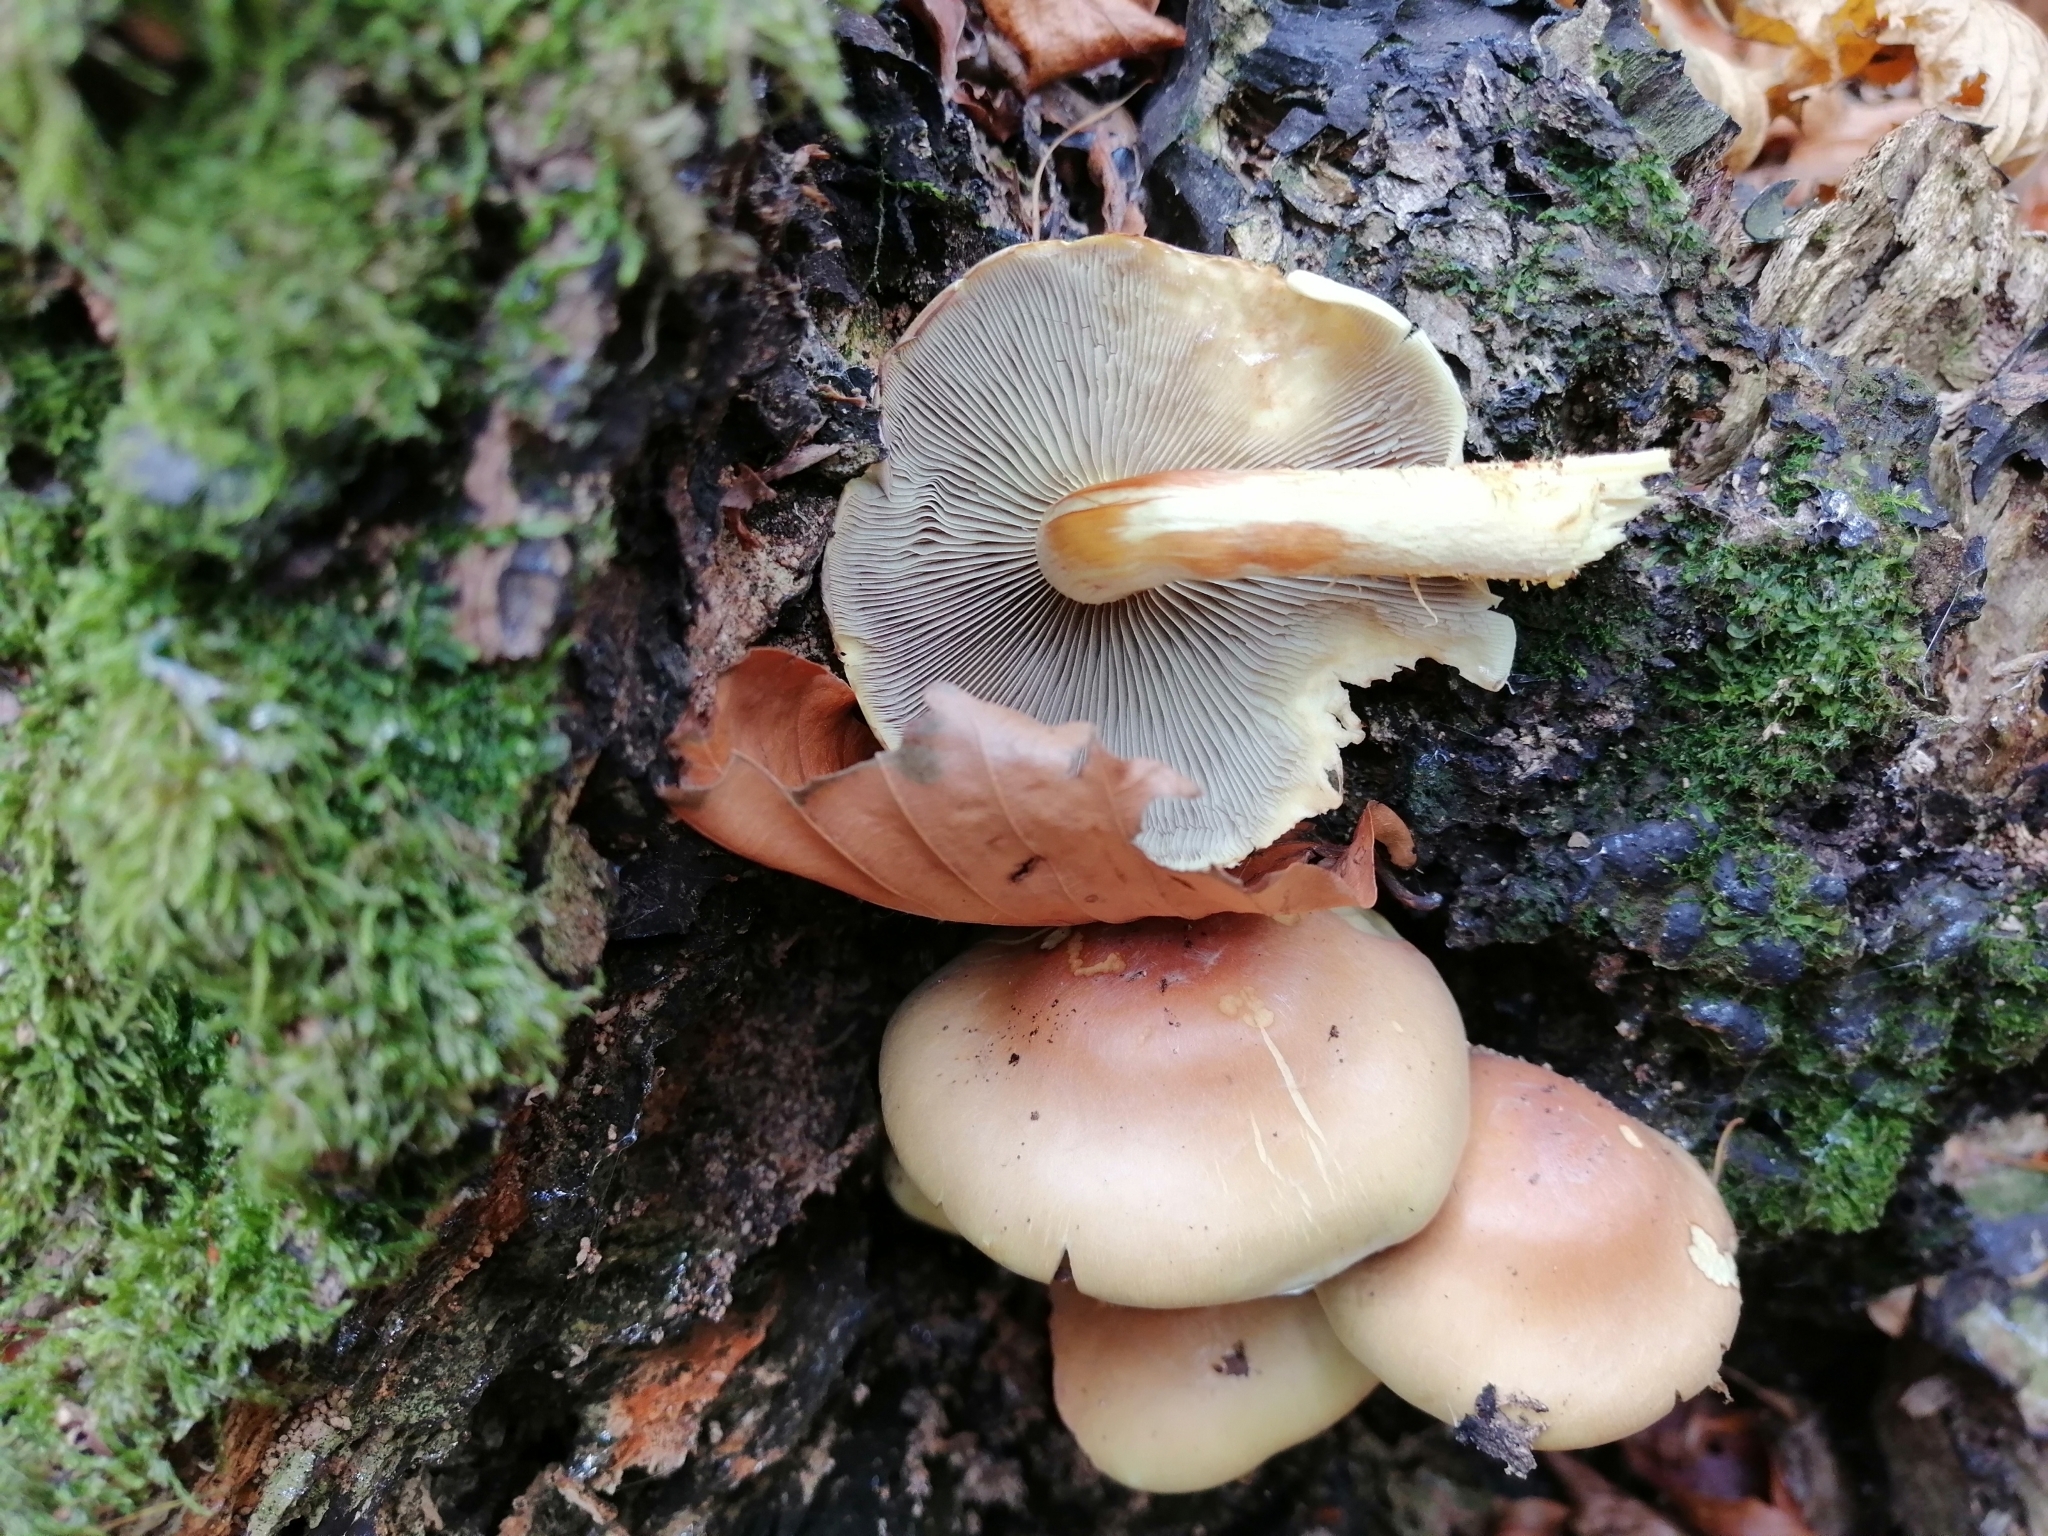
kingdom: Fungi
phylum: Basidiomycota
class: Agaricomycetes
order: Agaricales
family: Strophariaceae
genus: Hypholoma
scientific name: Hypholoma lateritium
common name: Brick caps
